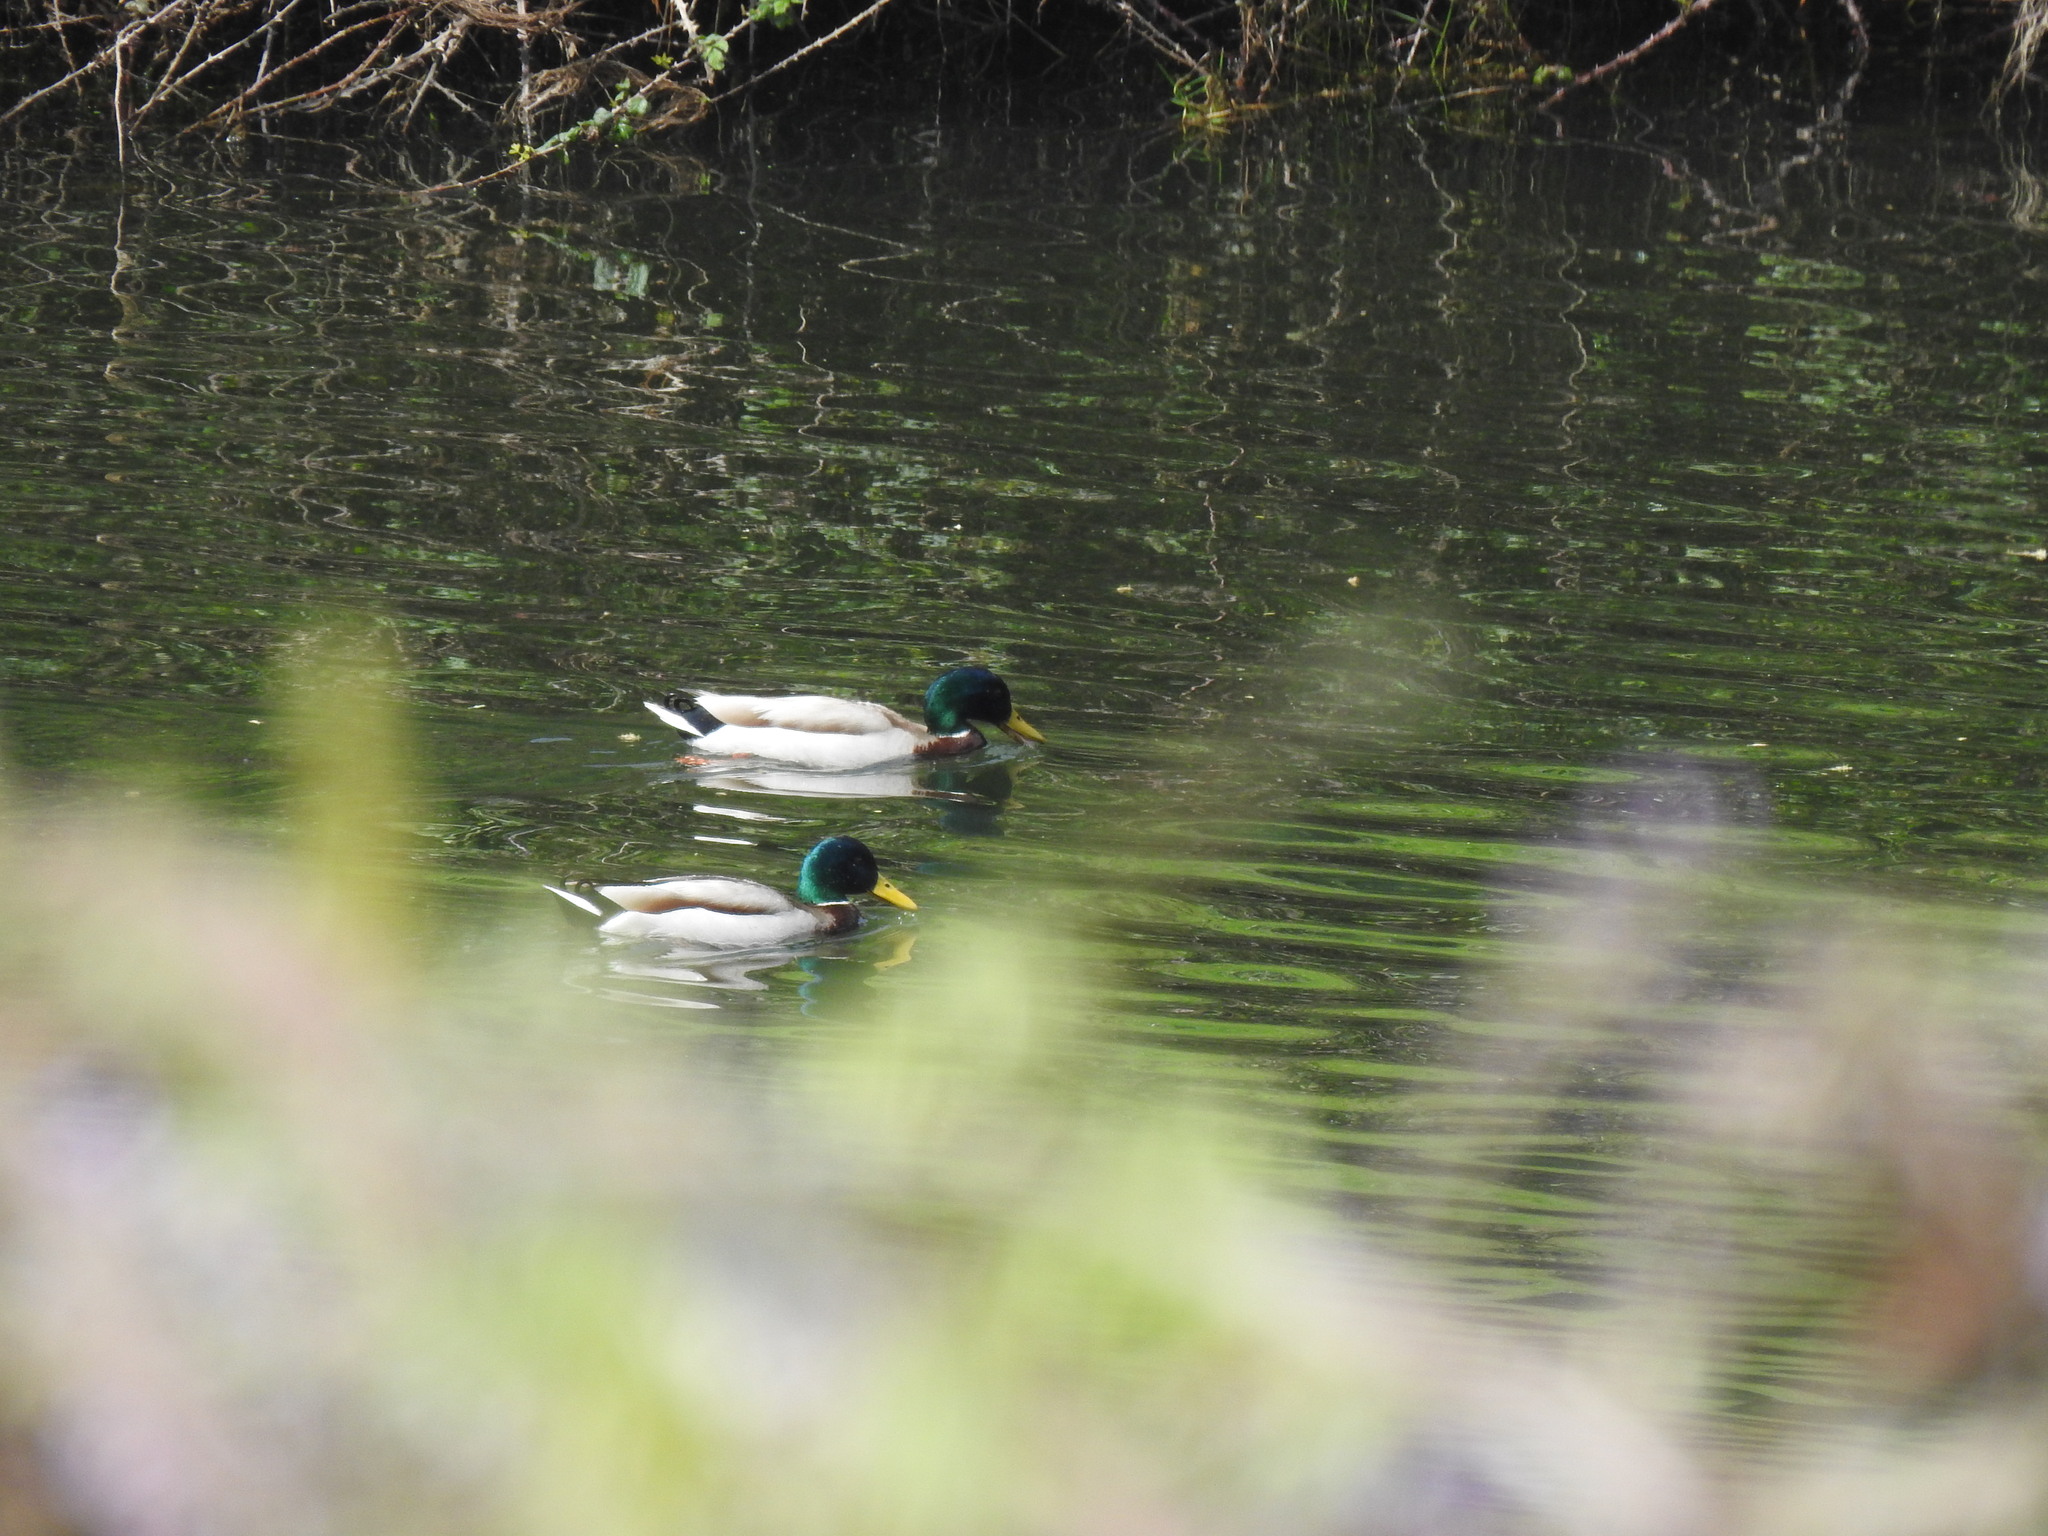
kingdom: Animalia
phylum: Chordata
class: Aves
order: Anseriformes
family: Anatidae
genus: Anas
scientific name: Anas platyrhynchos
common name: Mallard
